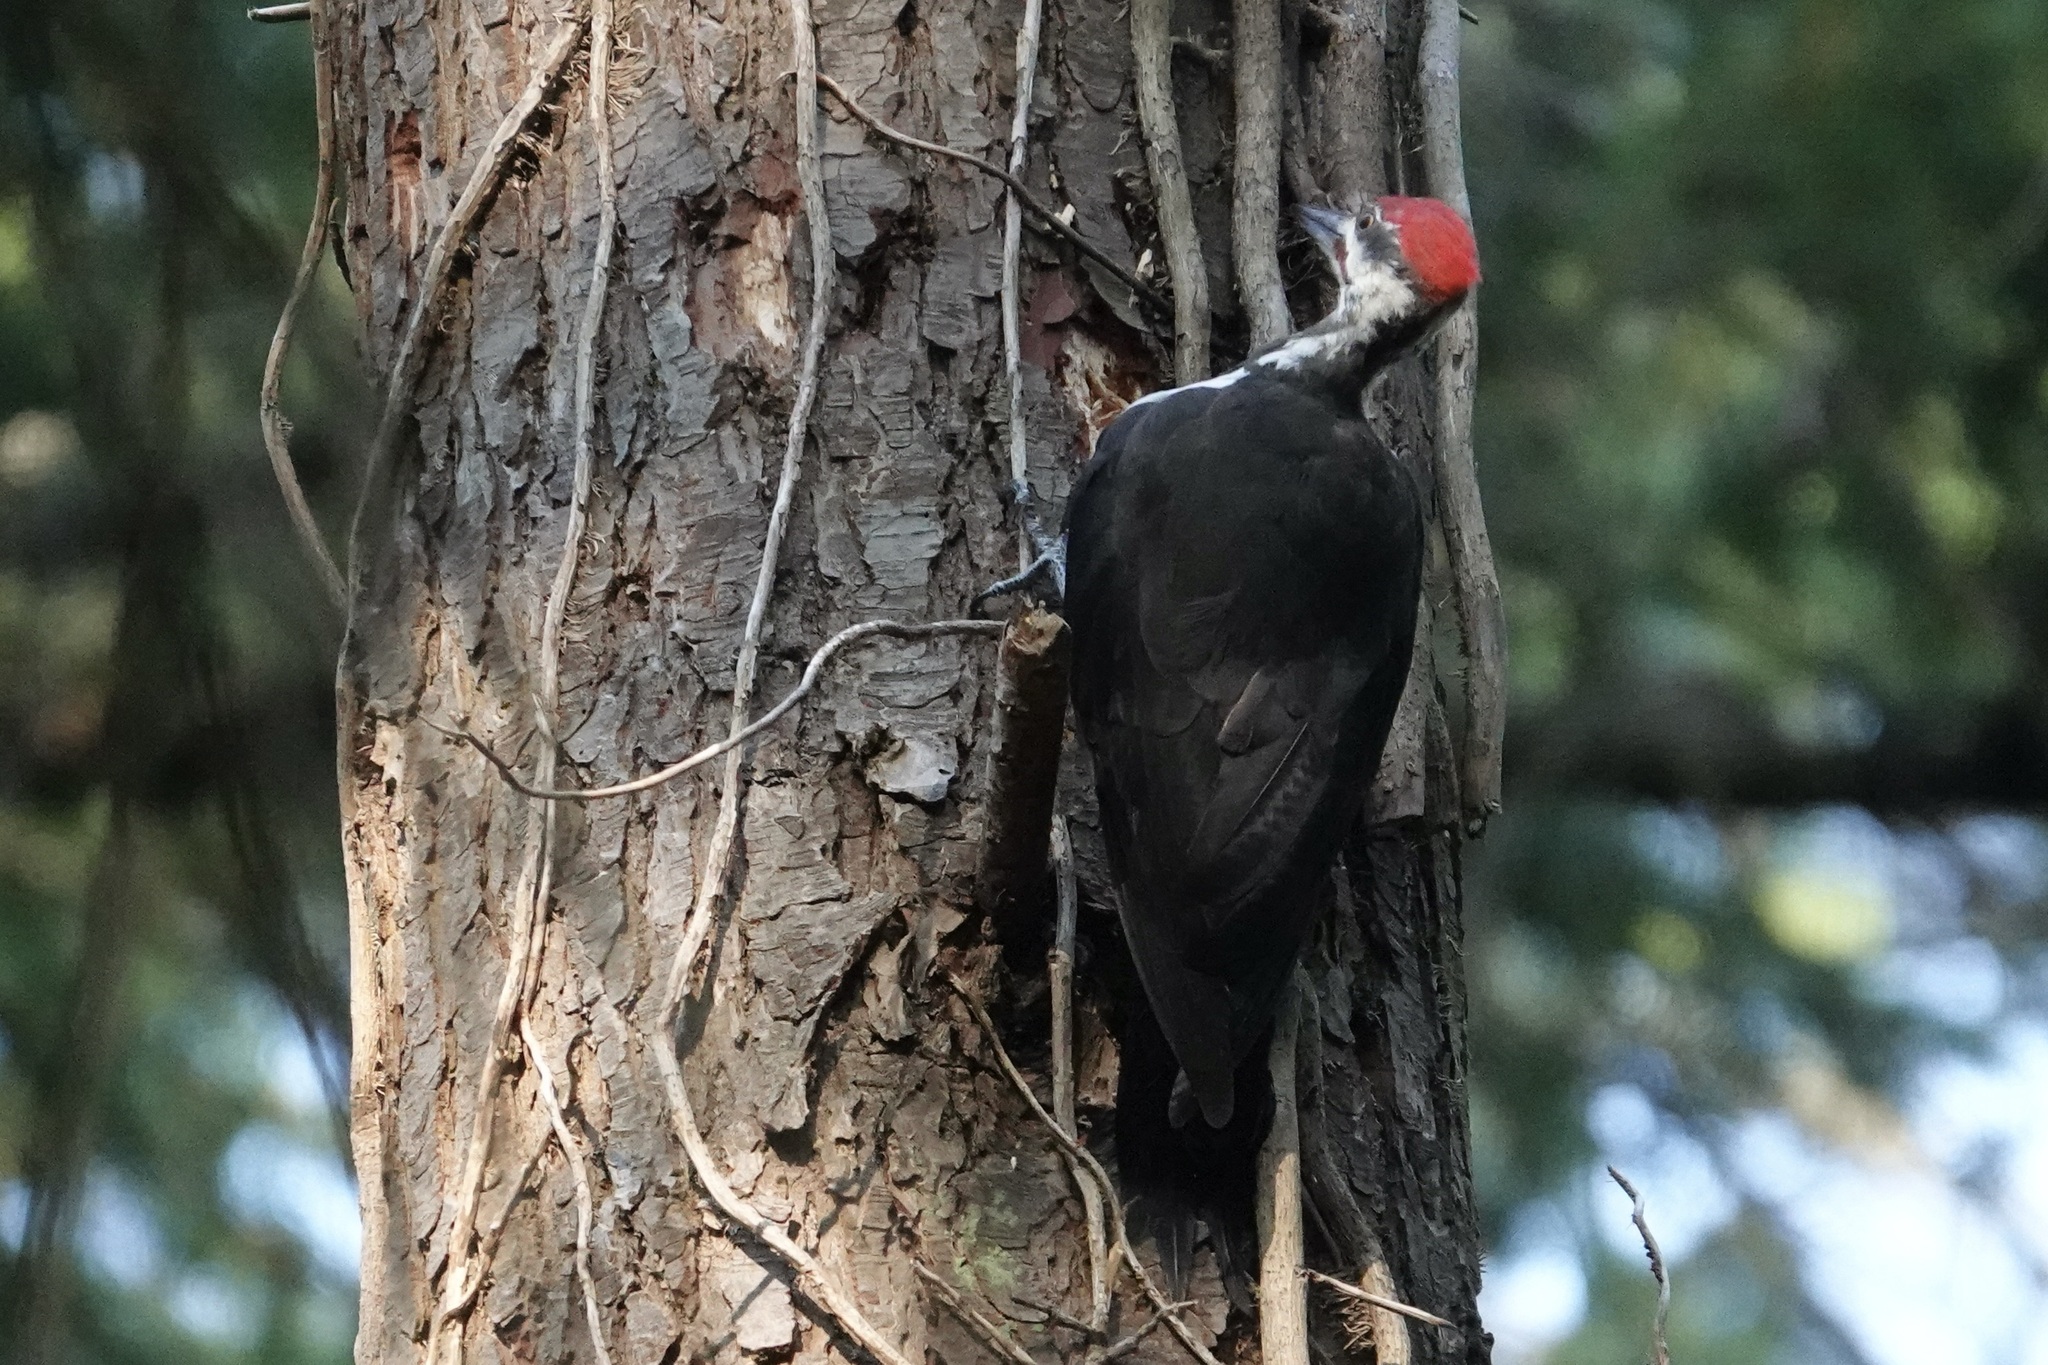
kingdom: Animalia
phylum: Chordata
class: Aves
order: Piciformes
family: Picidae
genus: Dryocopus
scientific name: Dryocopus pileatus
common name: Pileated woodpecker
